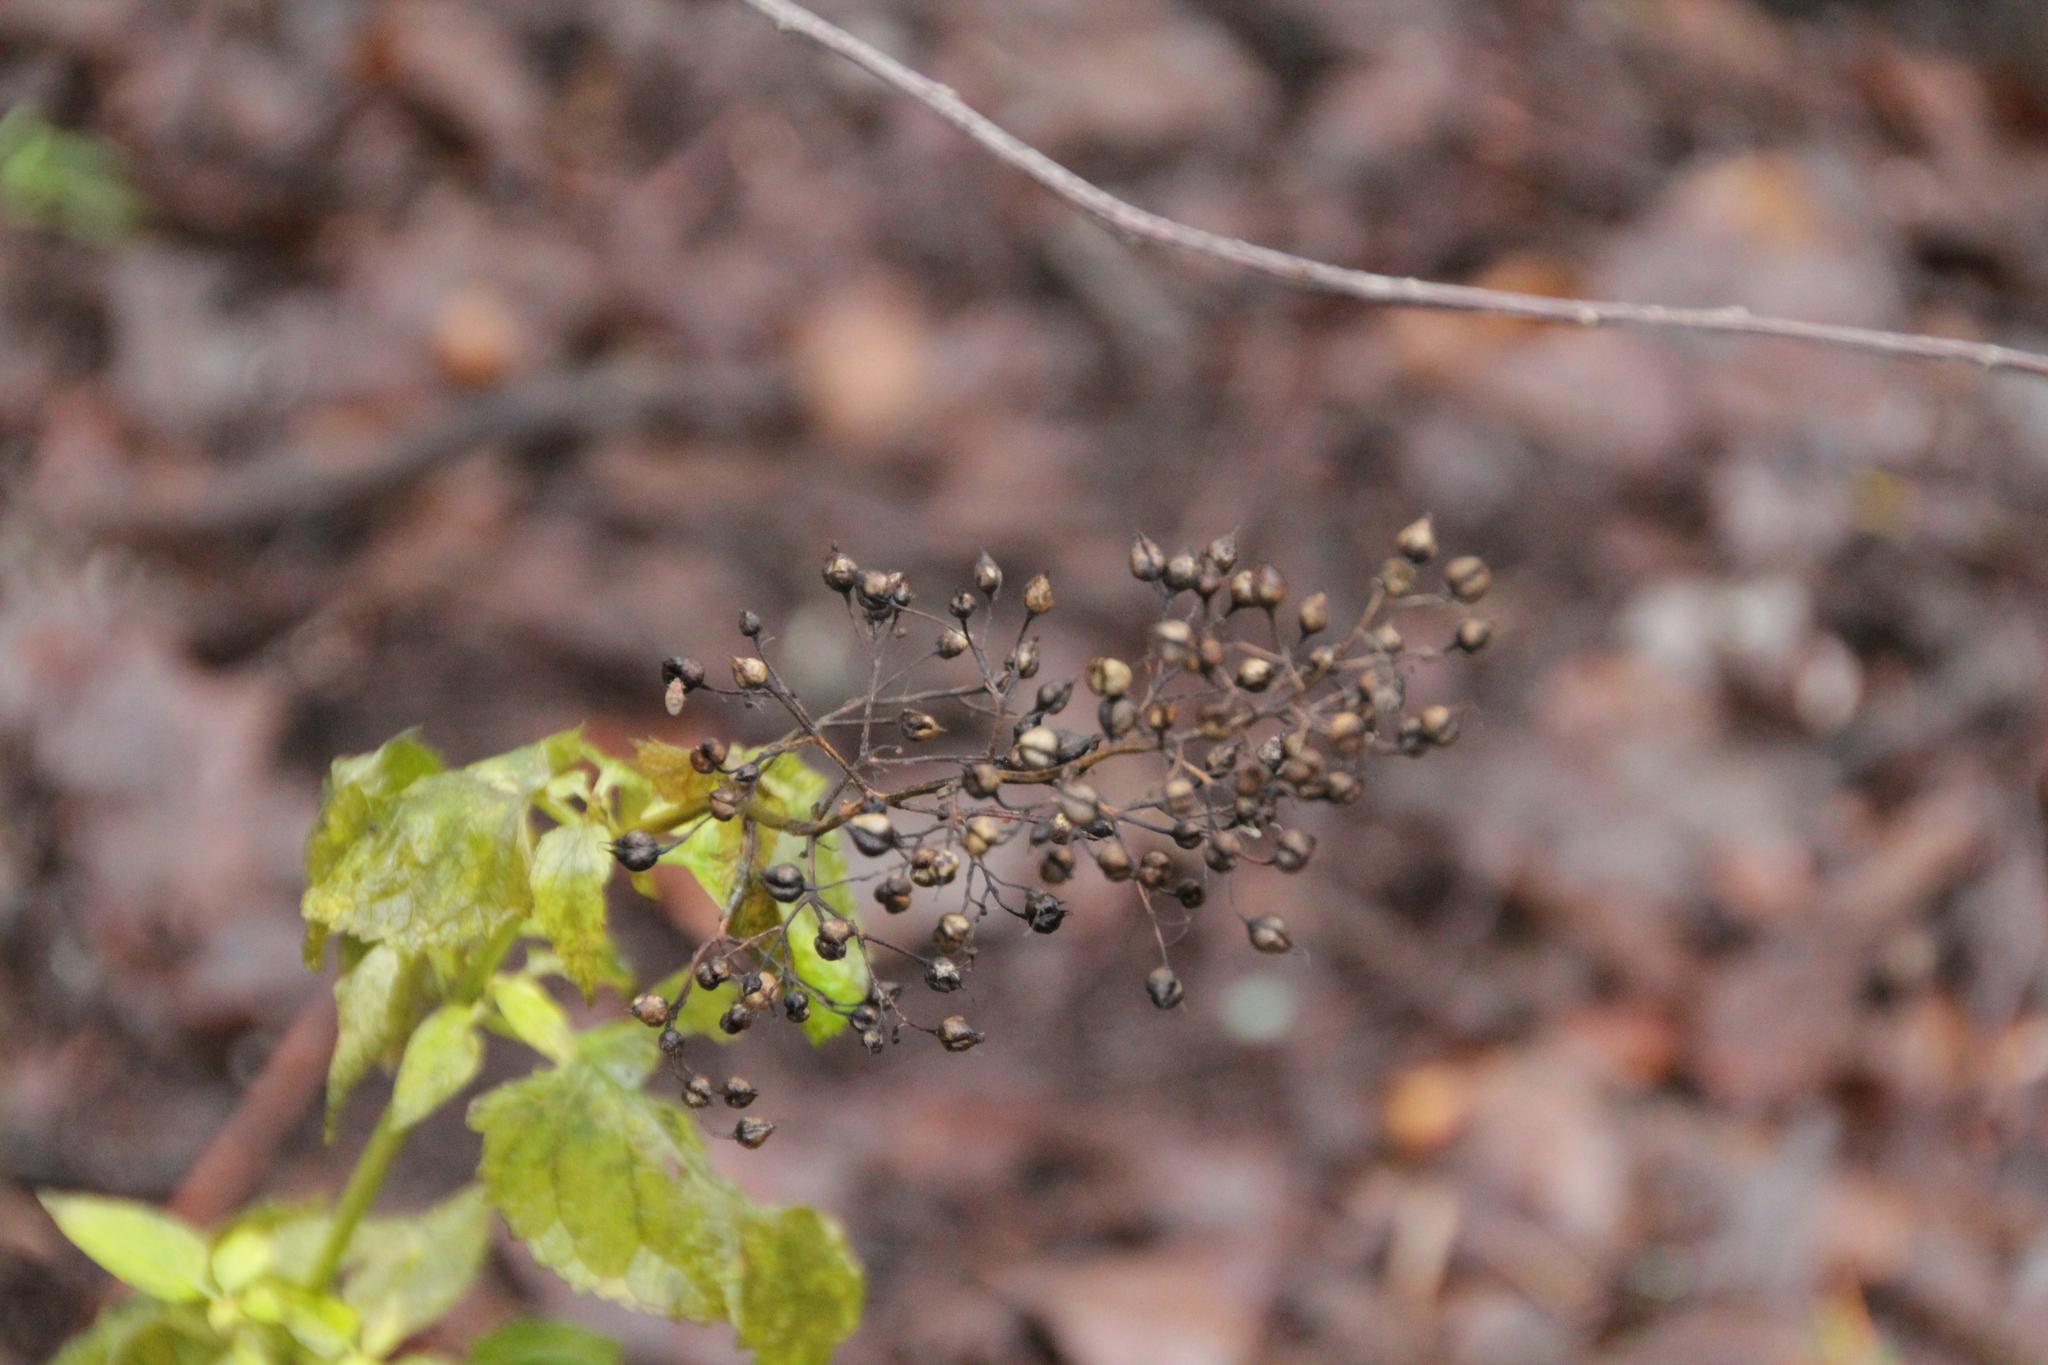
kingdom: Plantae
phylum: Tracheophyta
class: Magnoliopsida
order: Lamiales
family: Scrophulariaceae
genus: Scrophularia
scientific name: Scrophularia nodosa
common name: Common figwort
